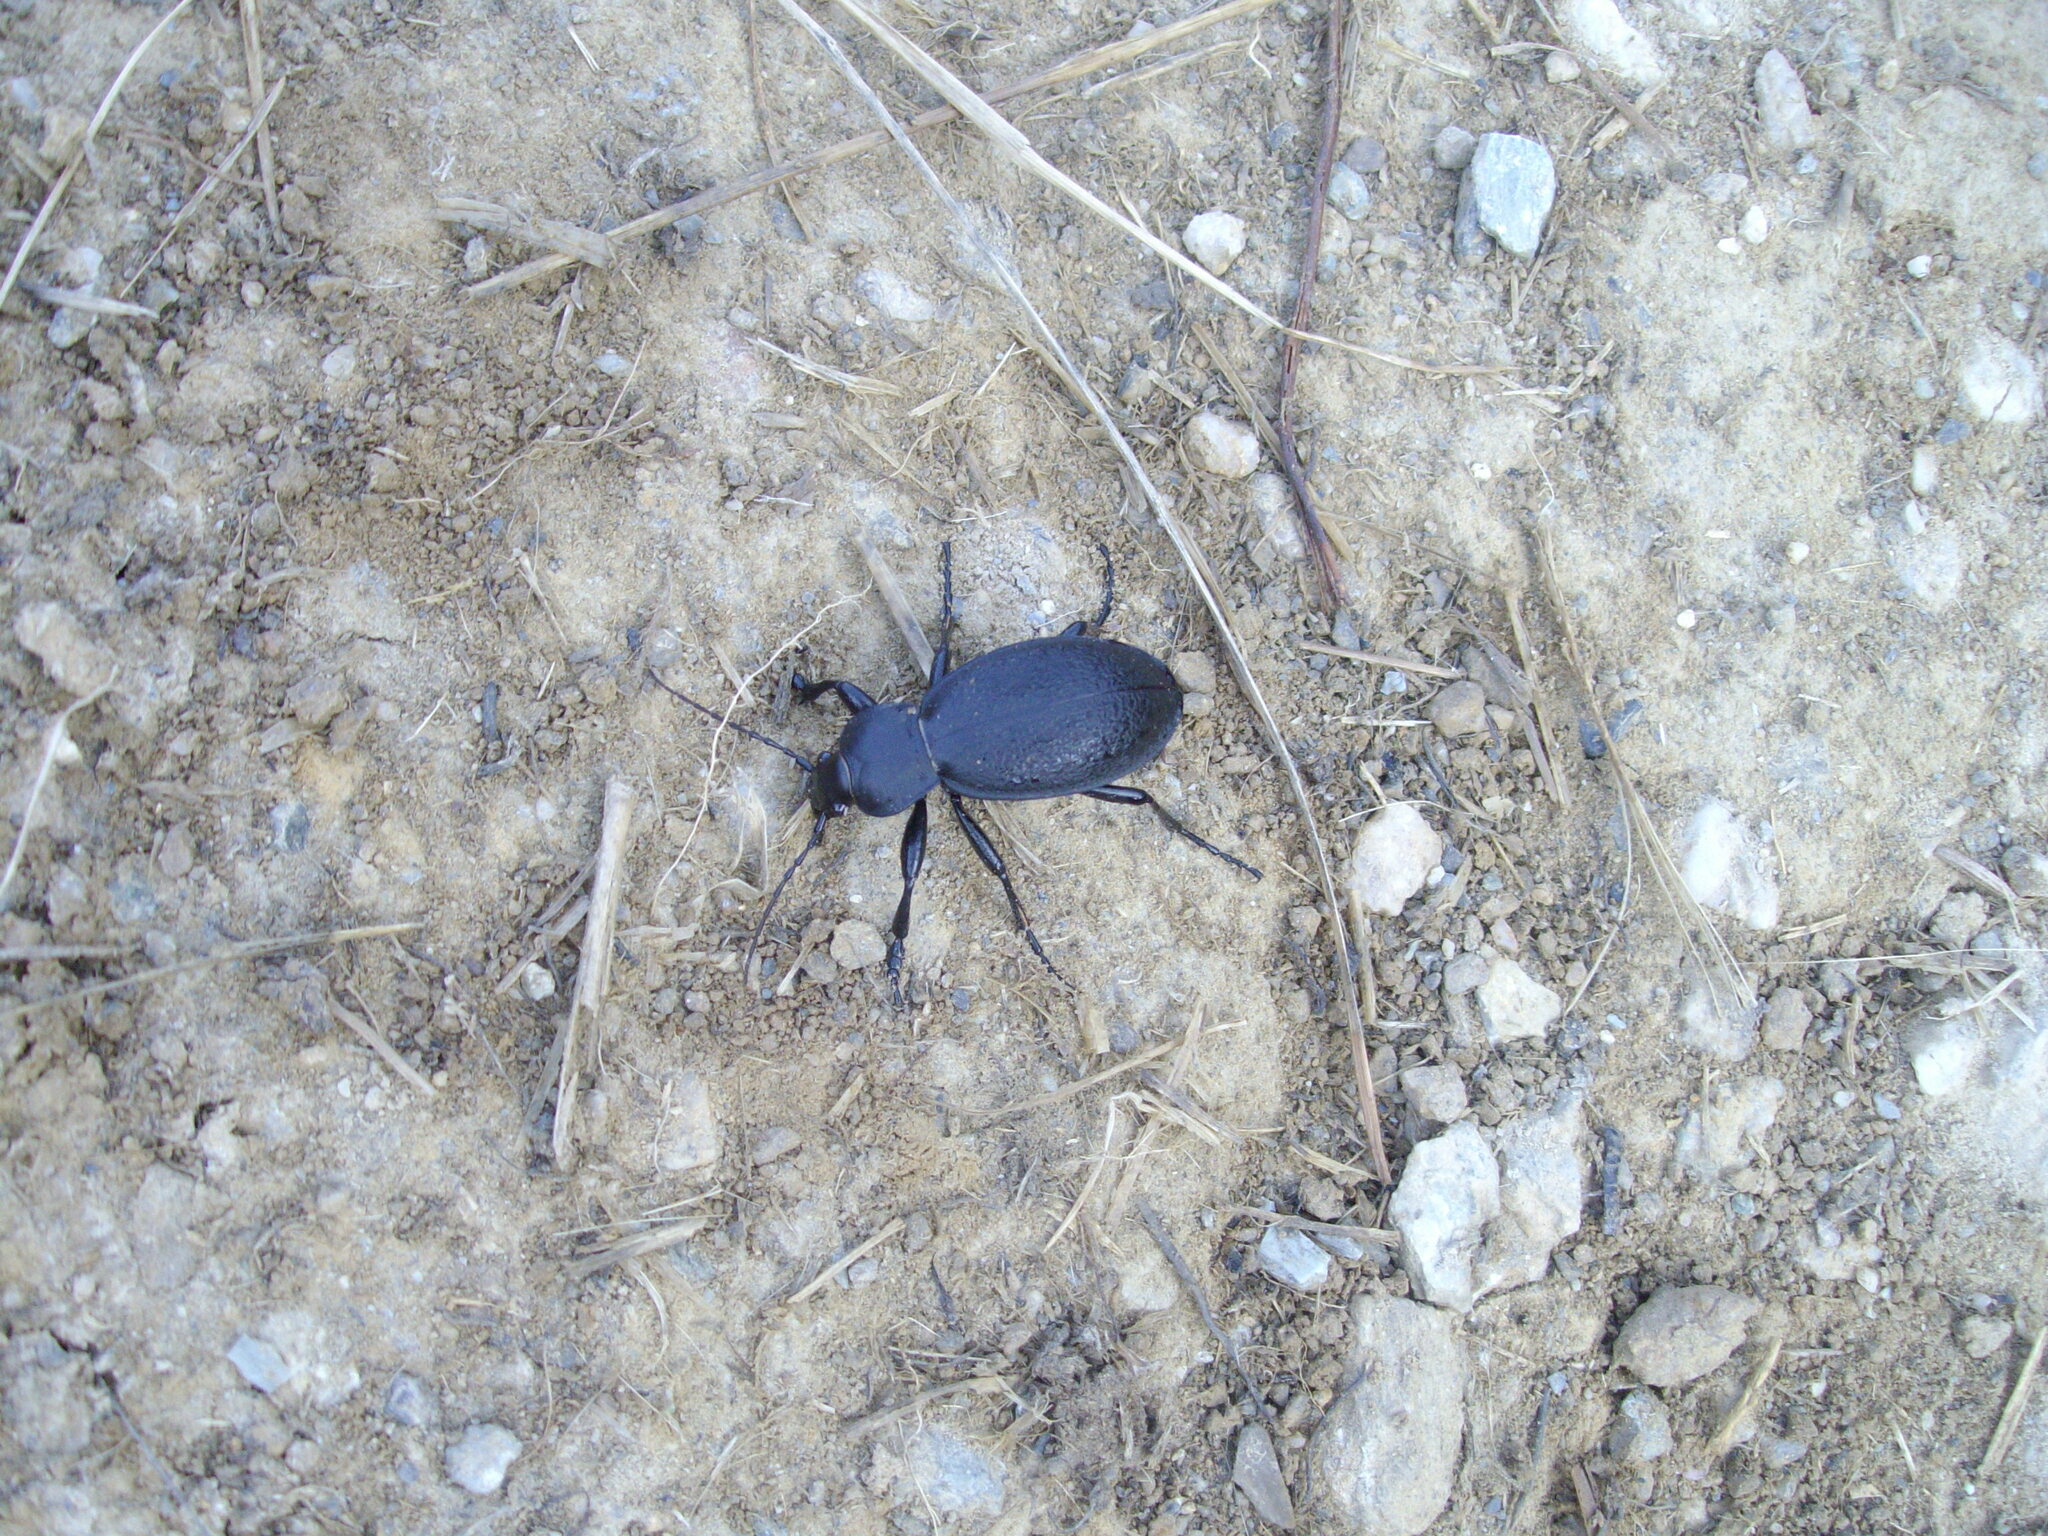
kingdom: Animalia
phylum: Arthropoda
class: Insecta
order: Coleoptera
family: Carabidae
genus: Carabus
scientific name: Carabus coriaceus
